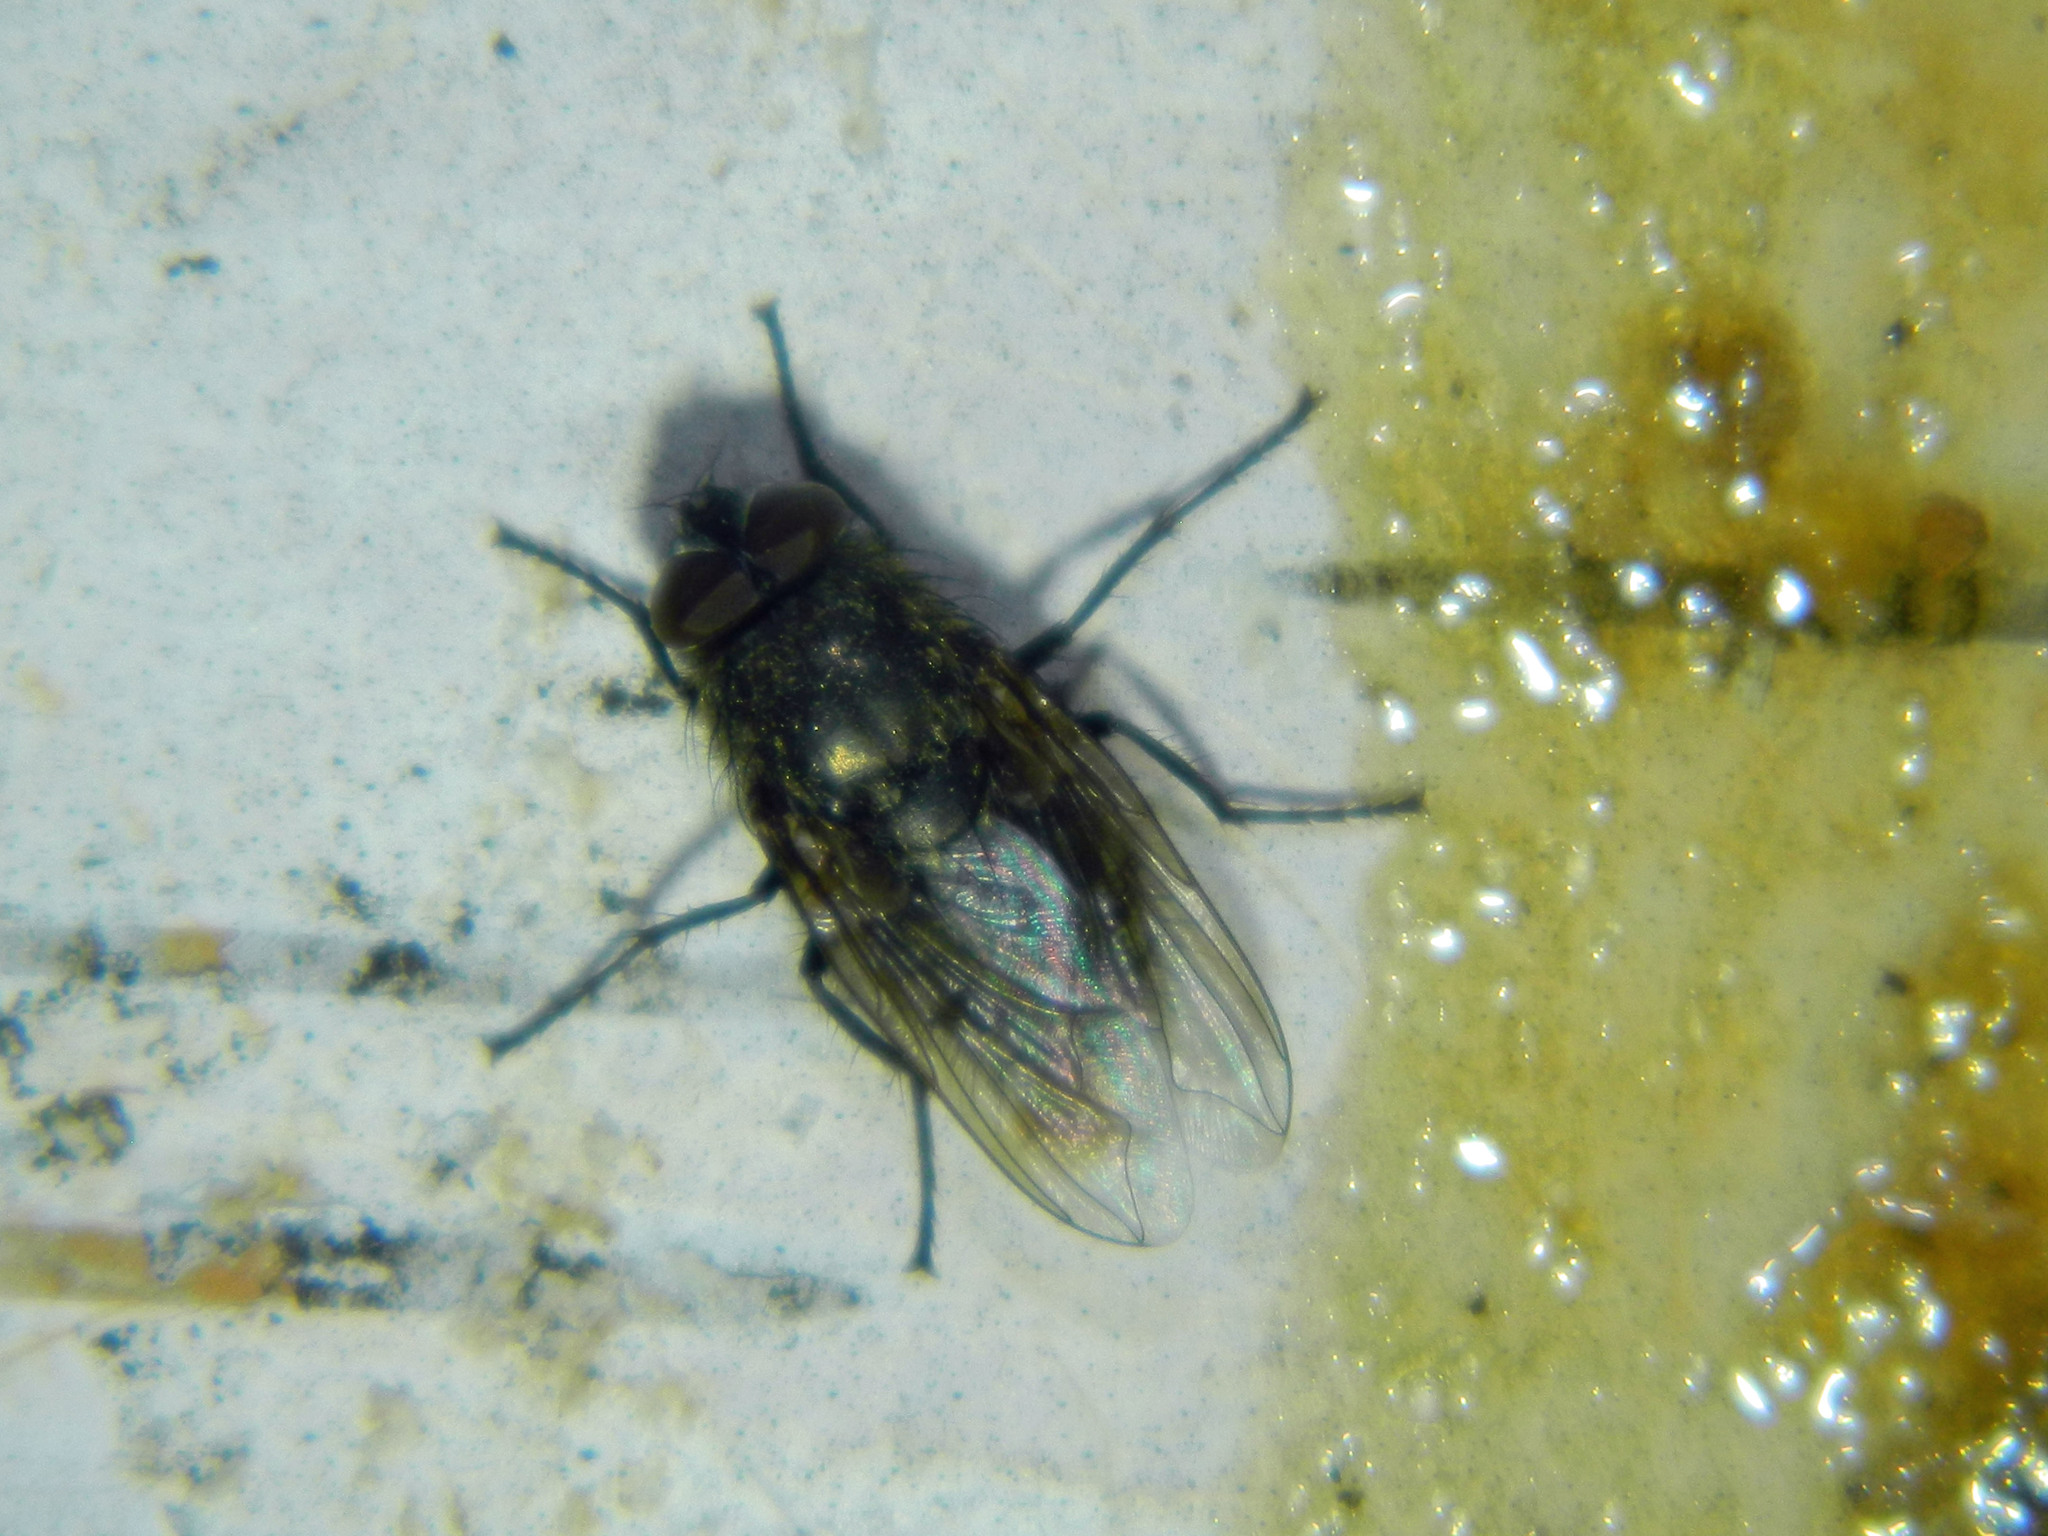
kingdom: Animalia
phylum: Arthropoda
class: Insecta
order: Diptera
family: Polleniidae
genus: Pollenia
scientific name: Pollenia
